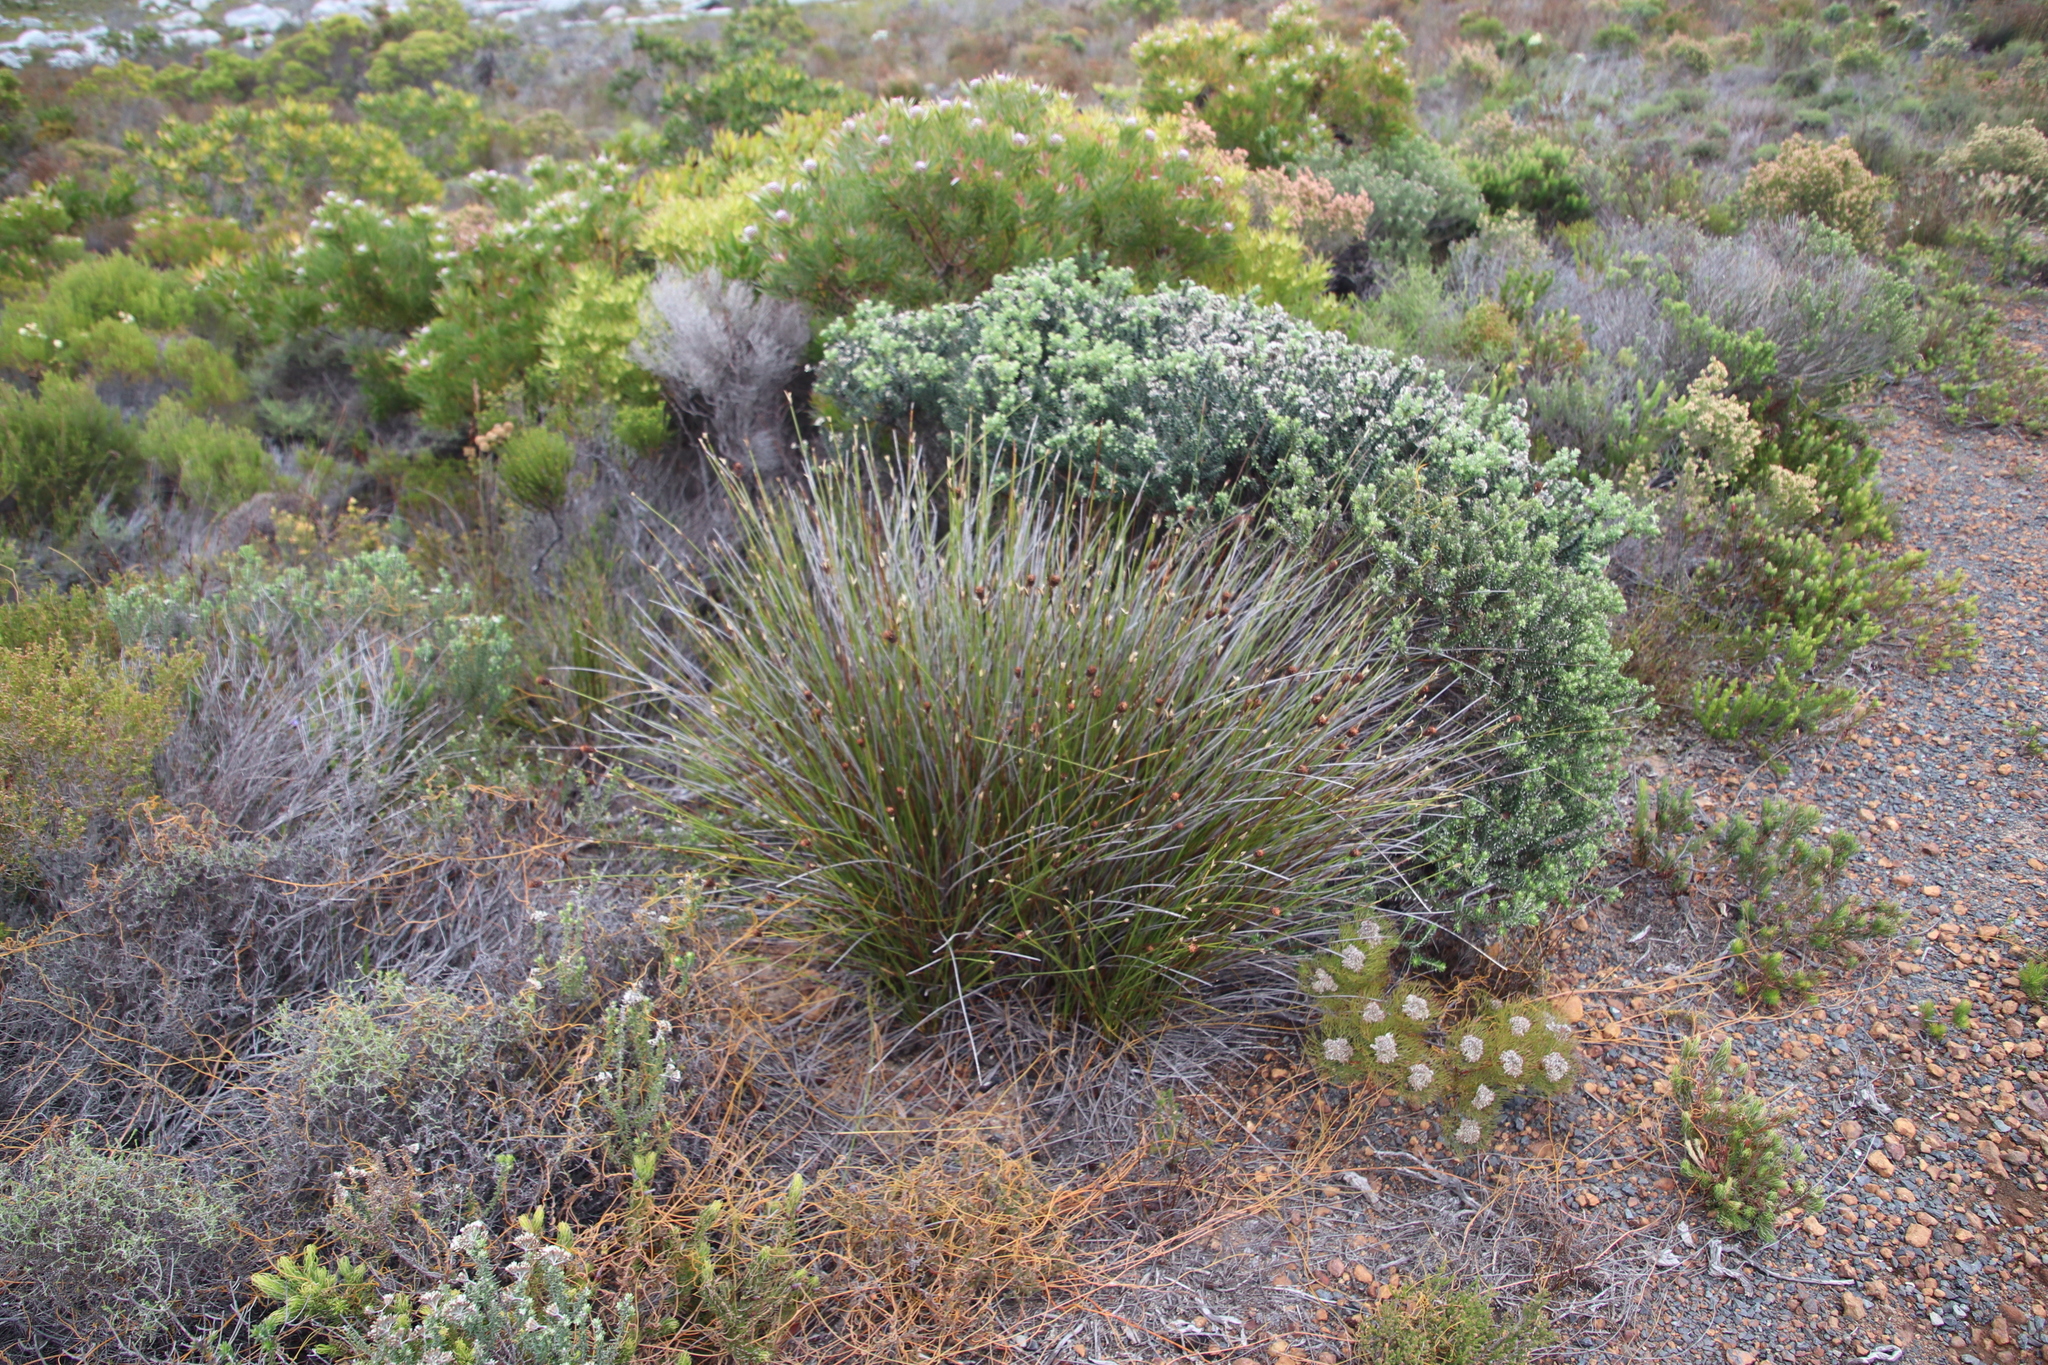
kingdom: Plantae
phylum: Tracheophyta
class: Magnoliopsida
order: Laurales
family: Lauraceae
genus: Cassytha
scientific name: Cassytha ciliolata
